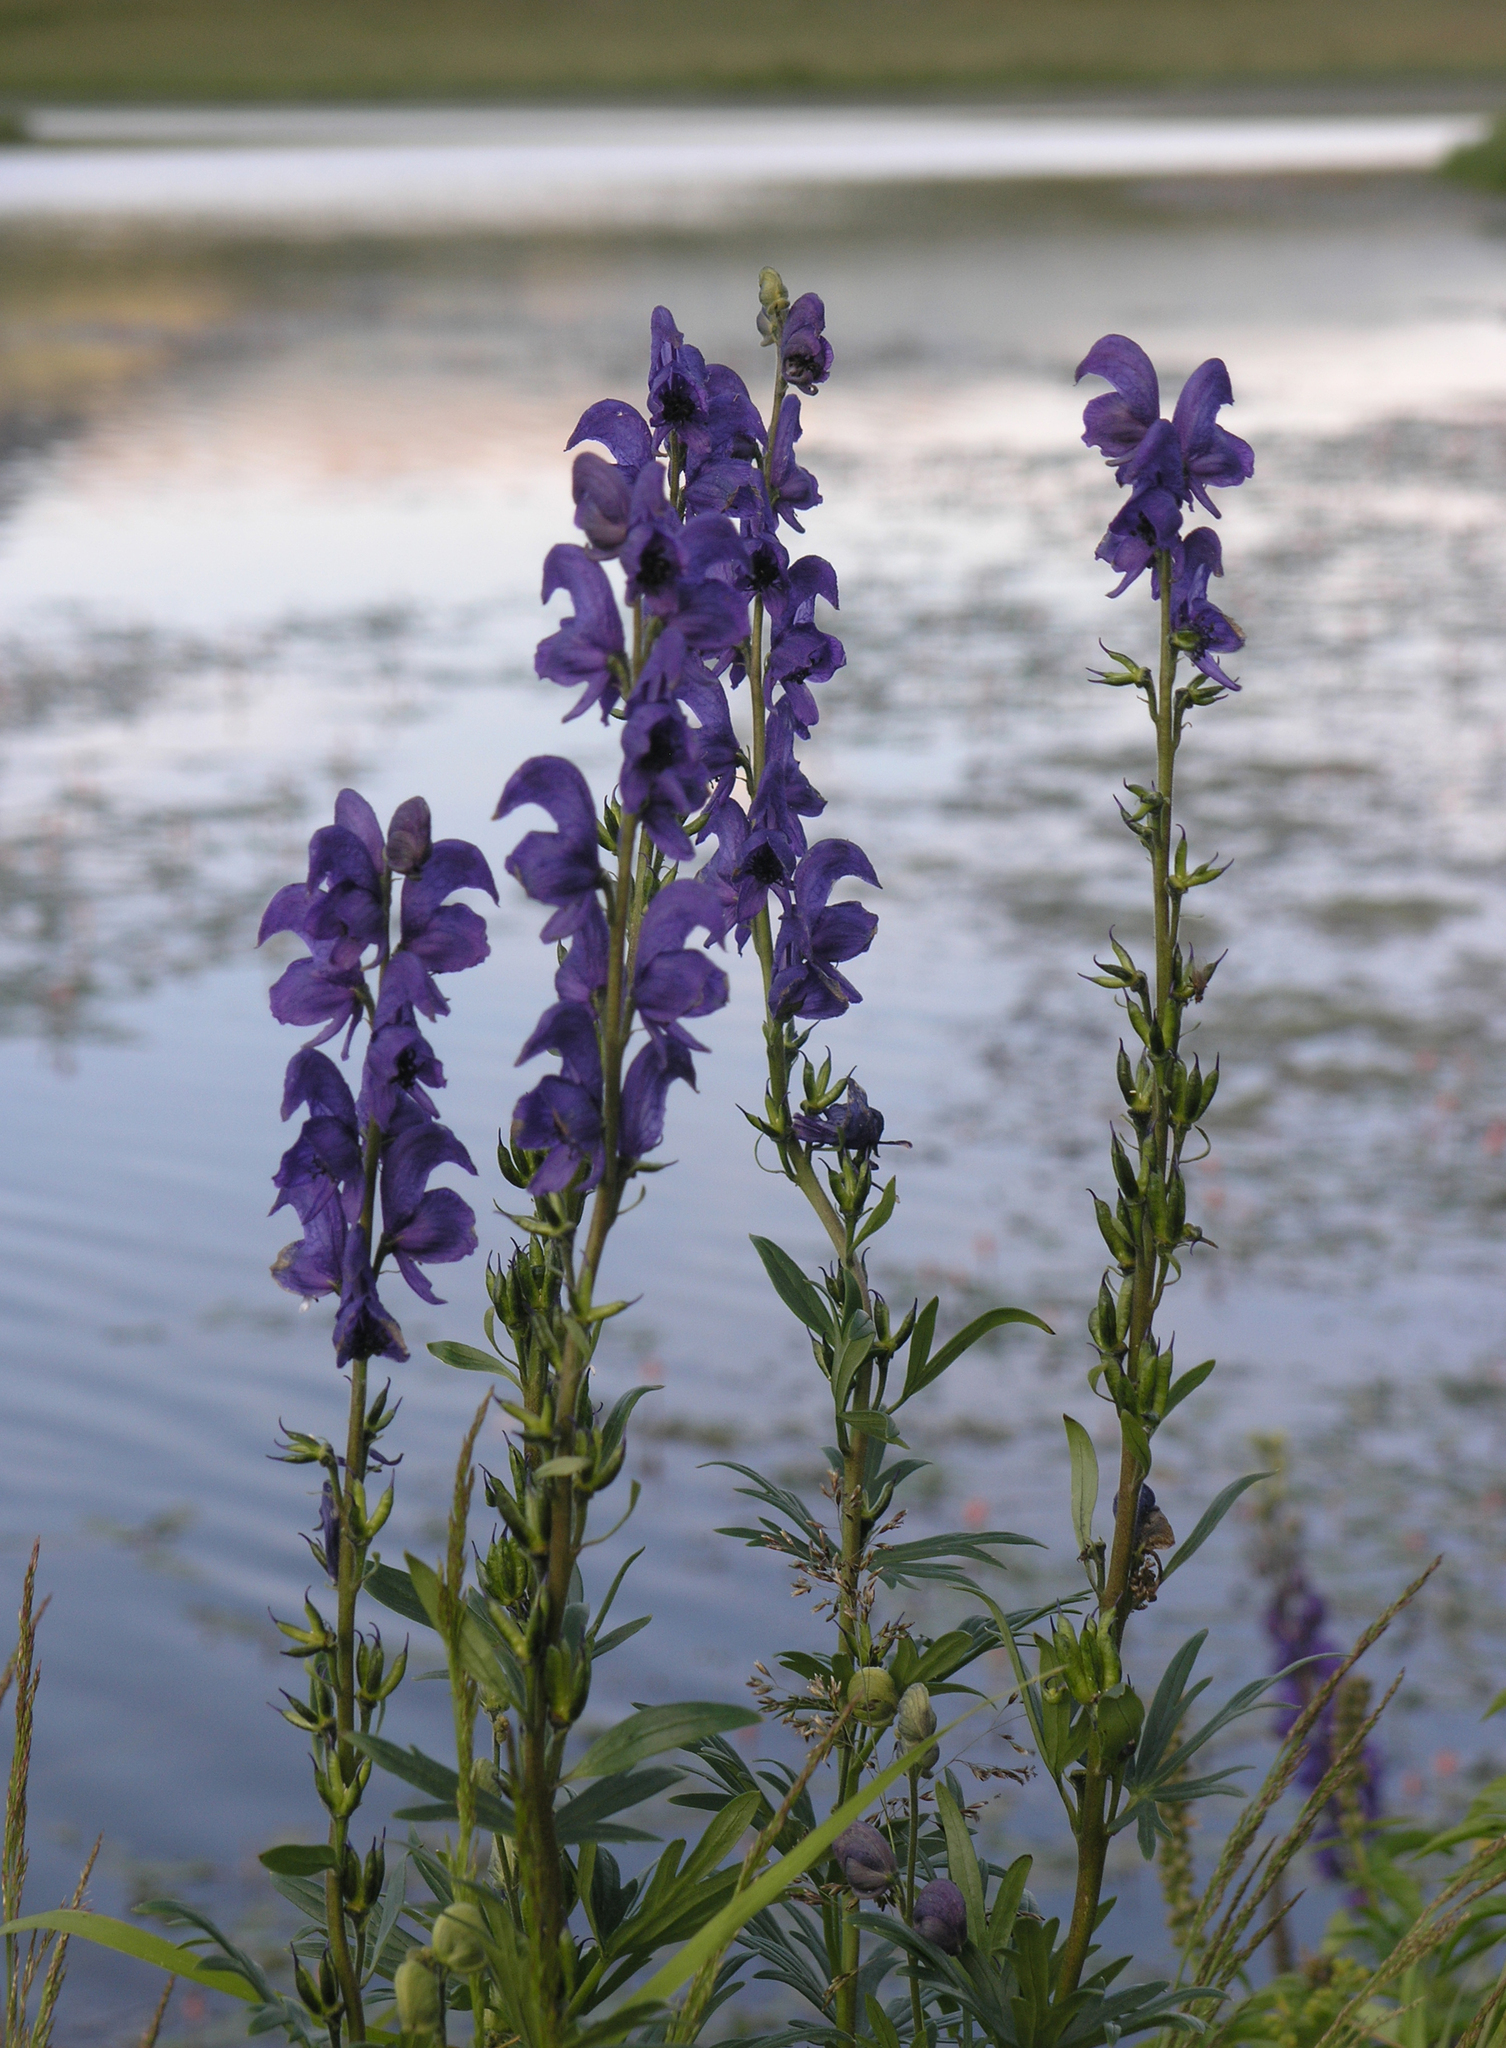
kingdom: Plantae
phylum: Tracheophyta
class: Magnoliopsida
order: Ranunculales
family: Ranunculaceae
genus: Aconitum
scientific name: Aconitum glandulosum
